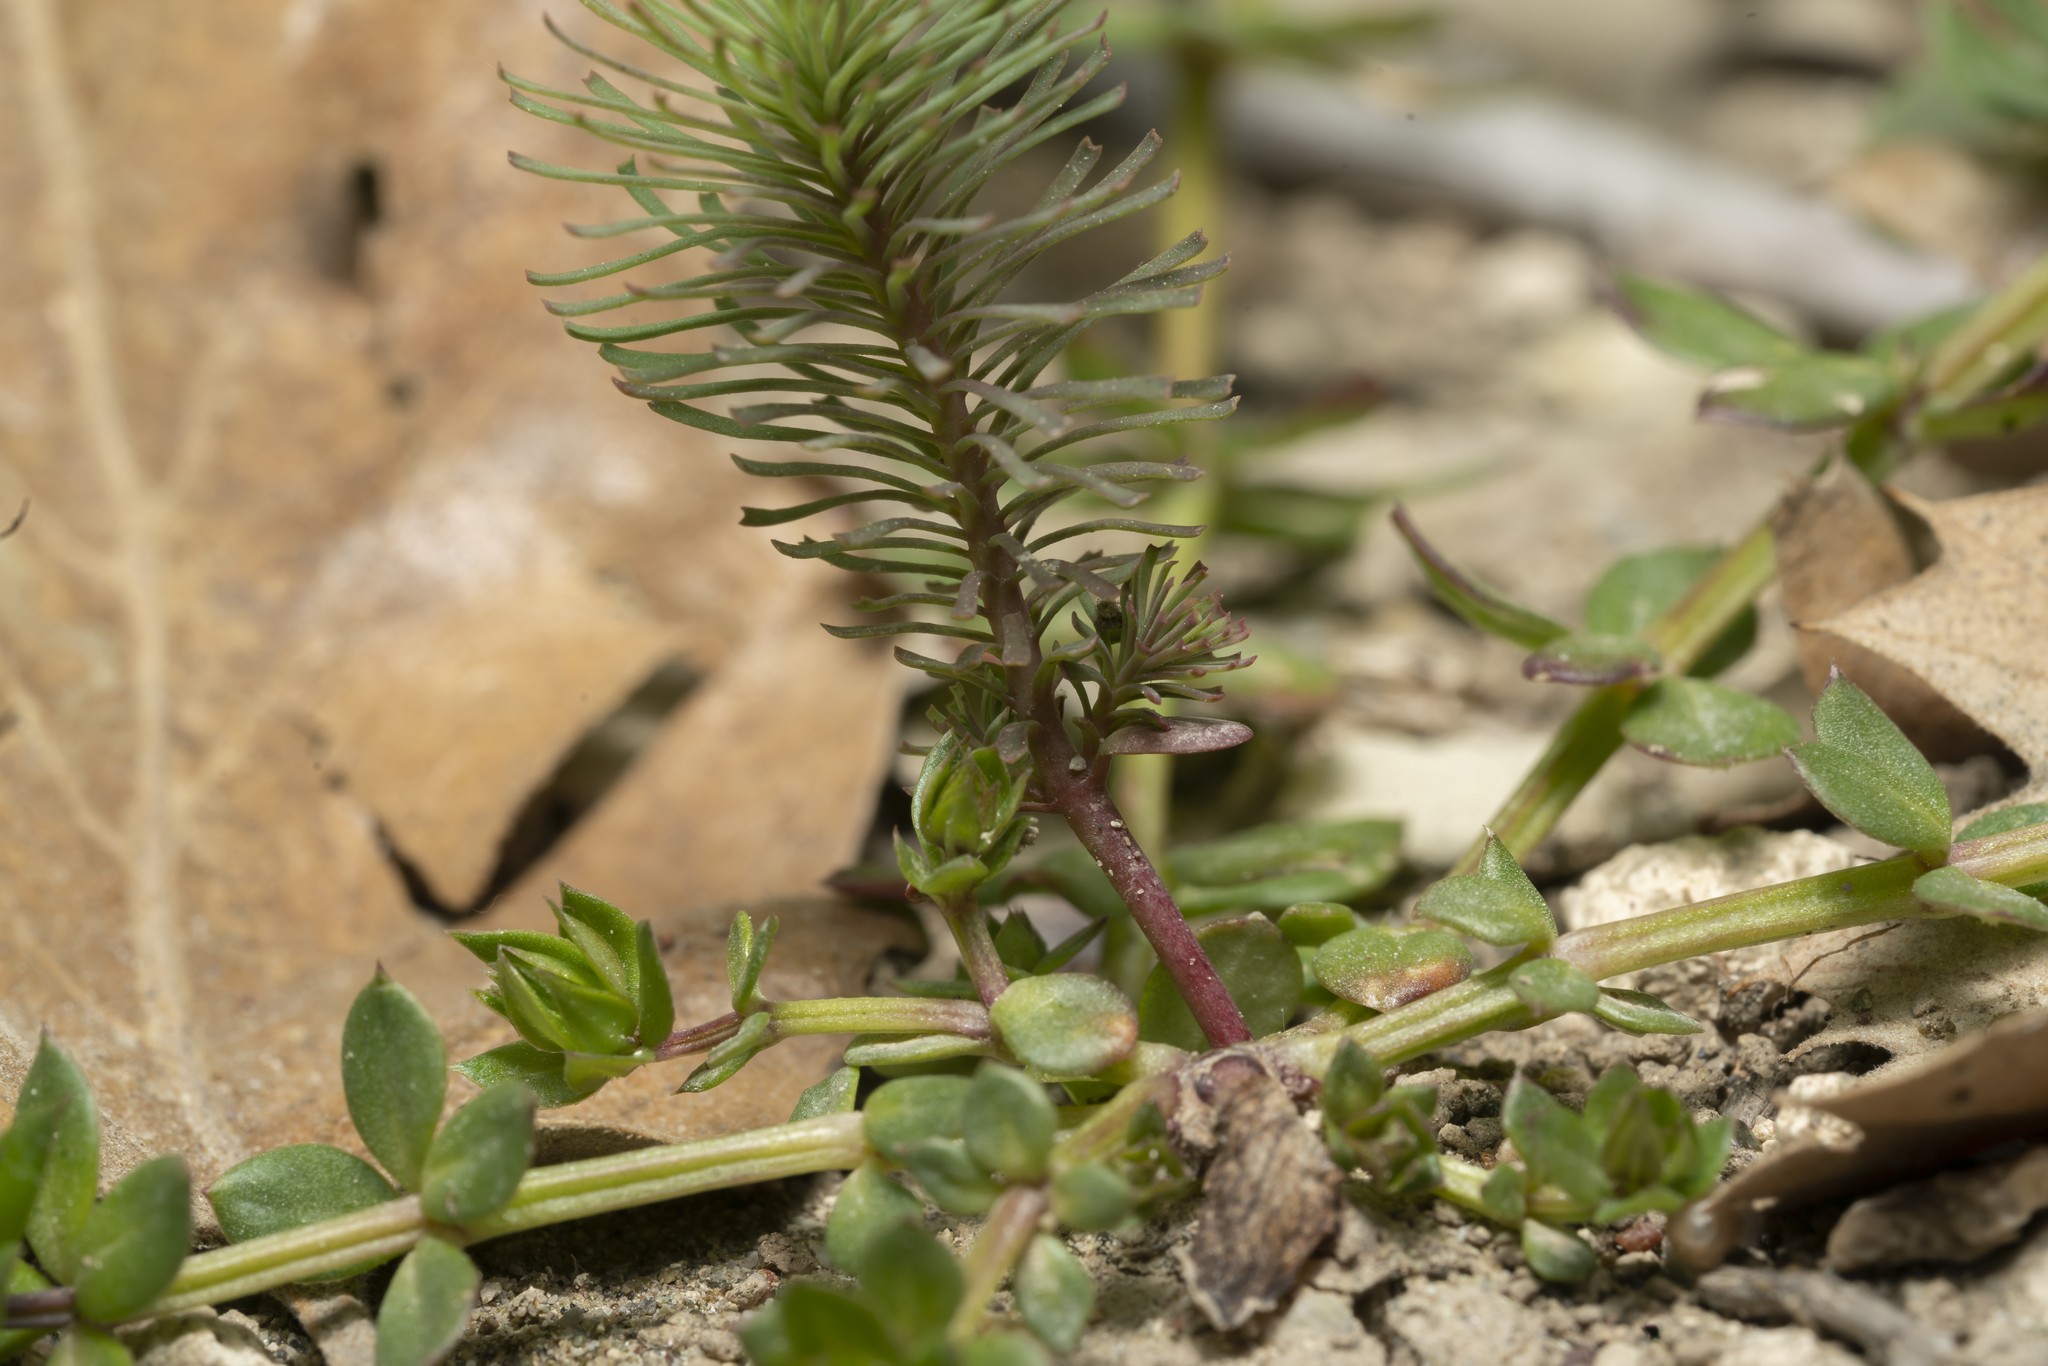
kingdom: Plantae
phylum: Tracheophyta
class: Magnoliopsida
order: Malpighiales
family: Euphorbiaceae
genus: Euphorbia
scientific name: Euphorbia aleppica
